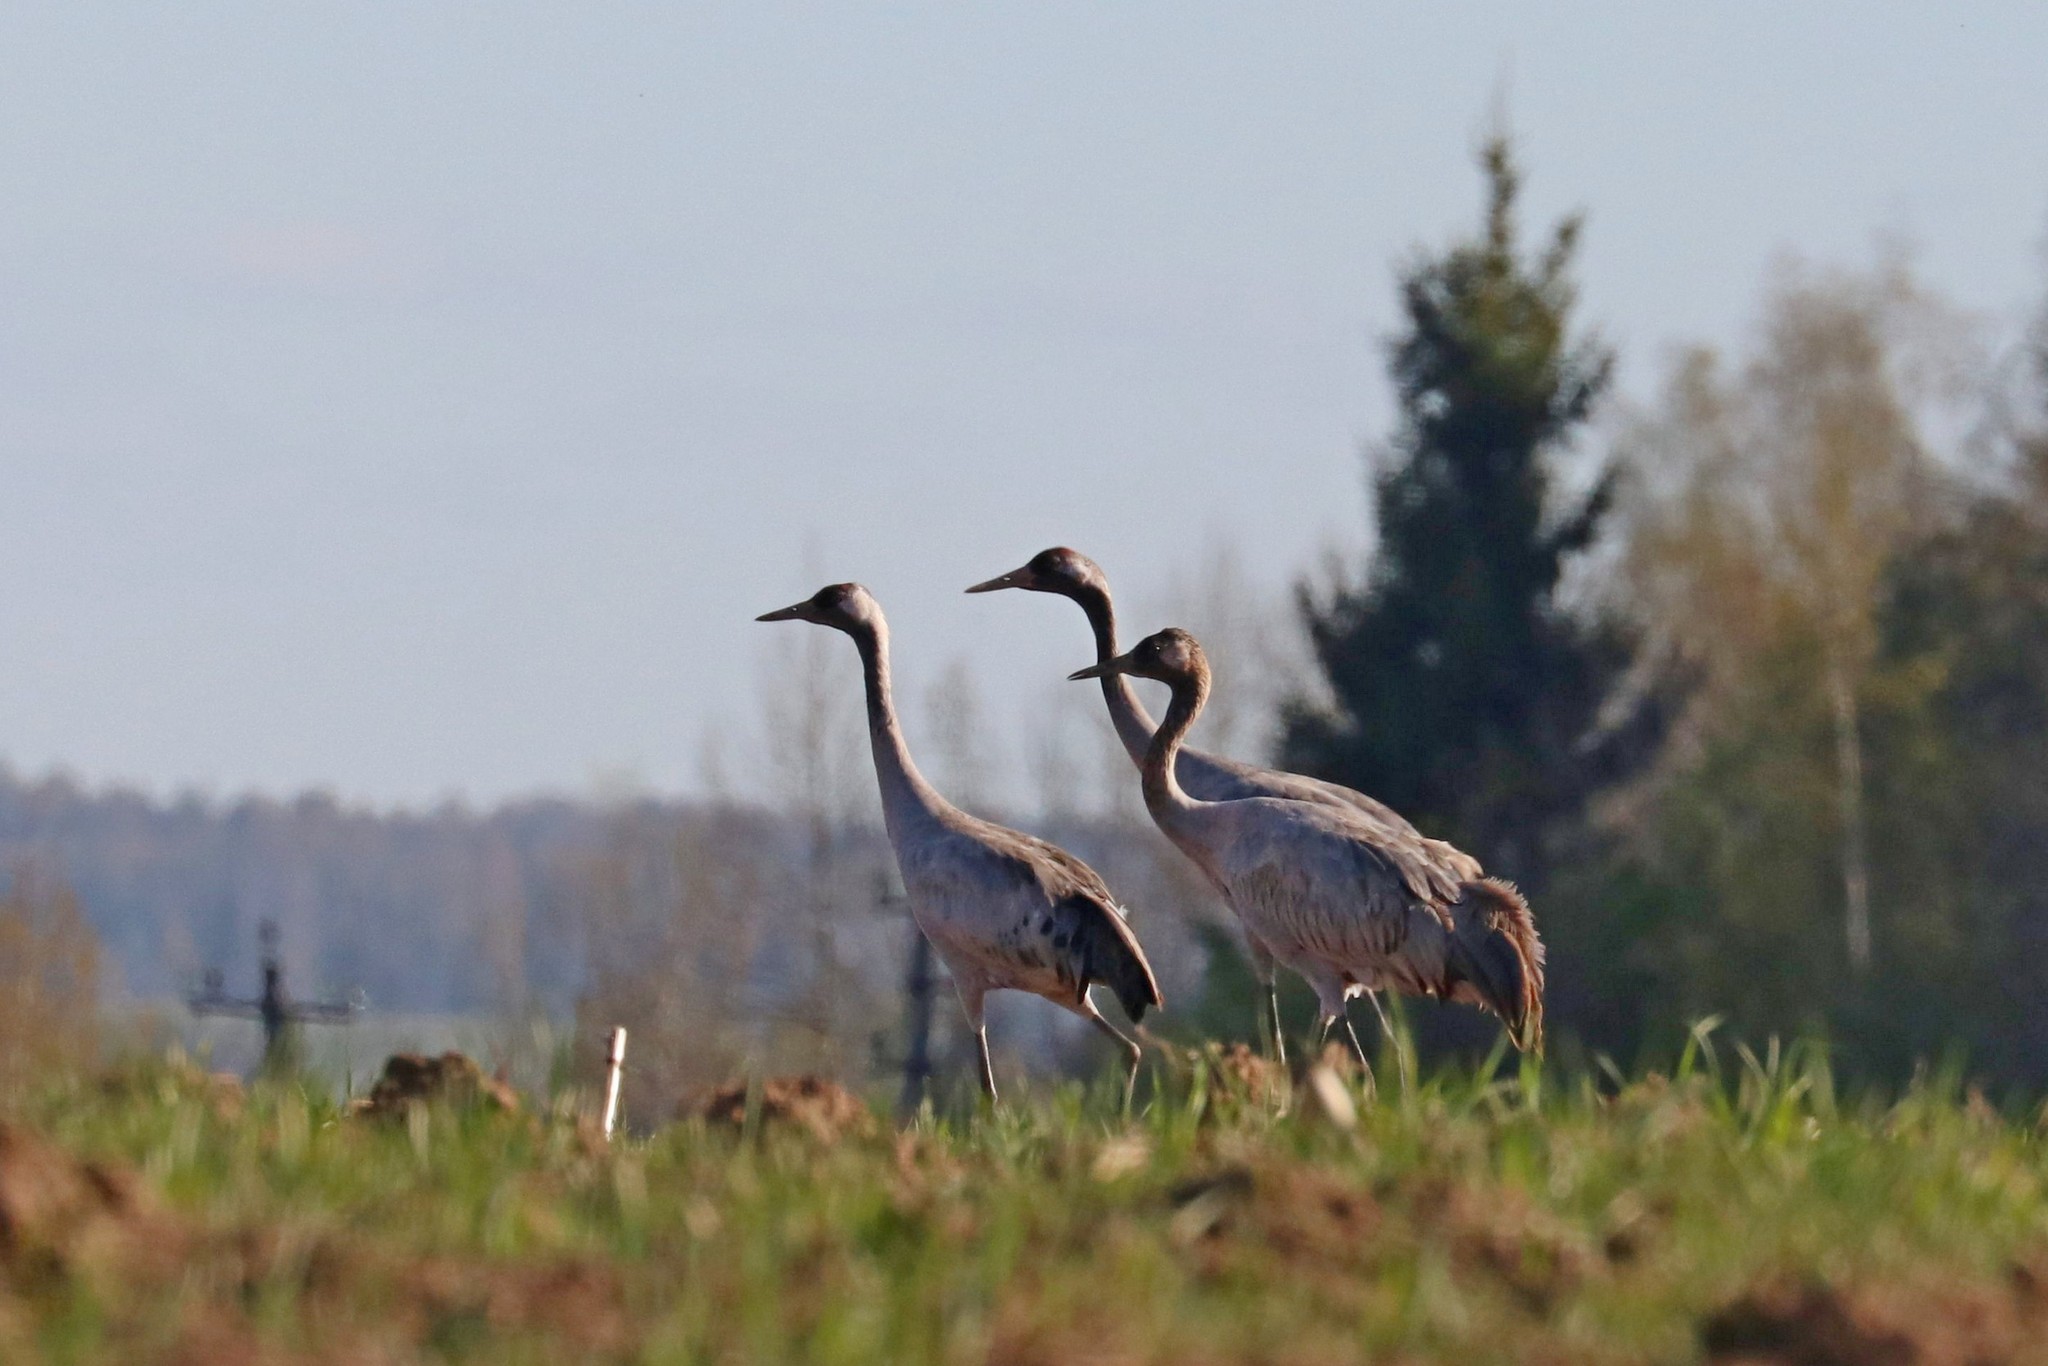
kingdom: Animalia
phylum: Chordata
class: Aves
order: Gruiformes
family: Gruidae
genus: Grus
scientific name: Grus grus
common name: Common crane
